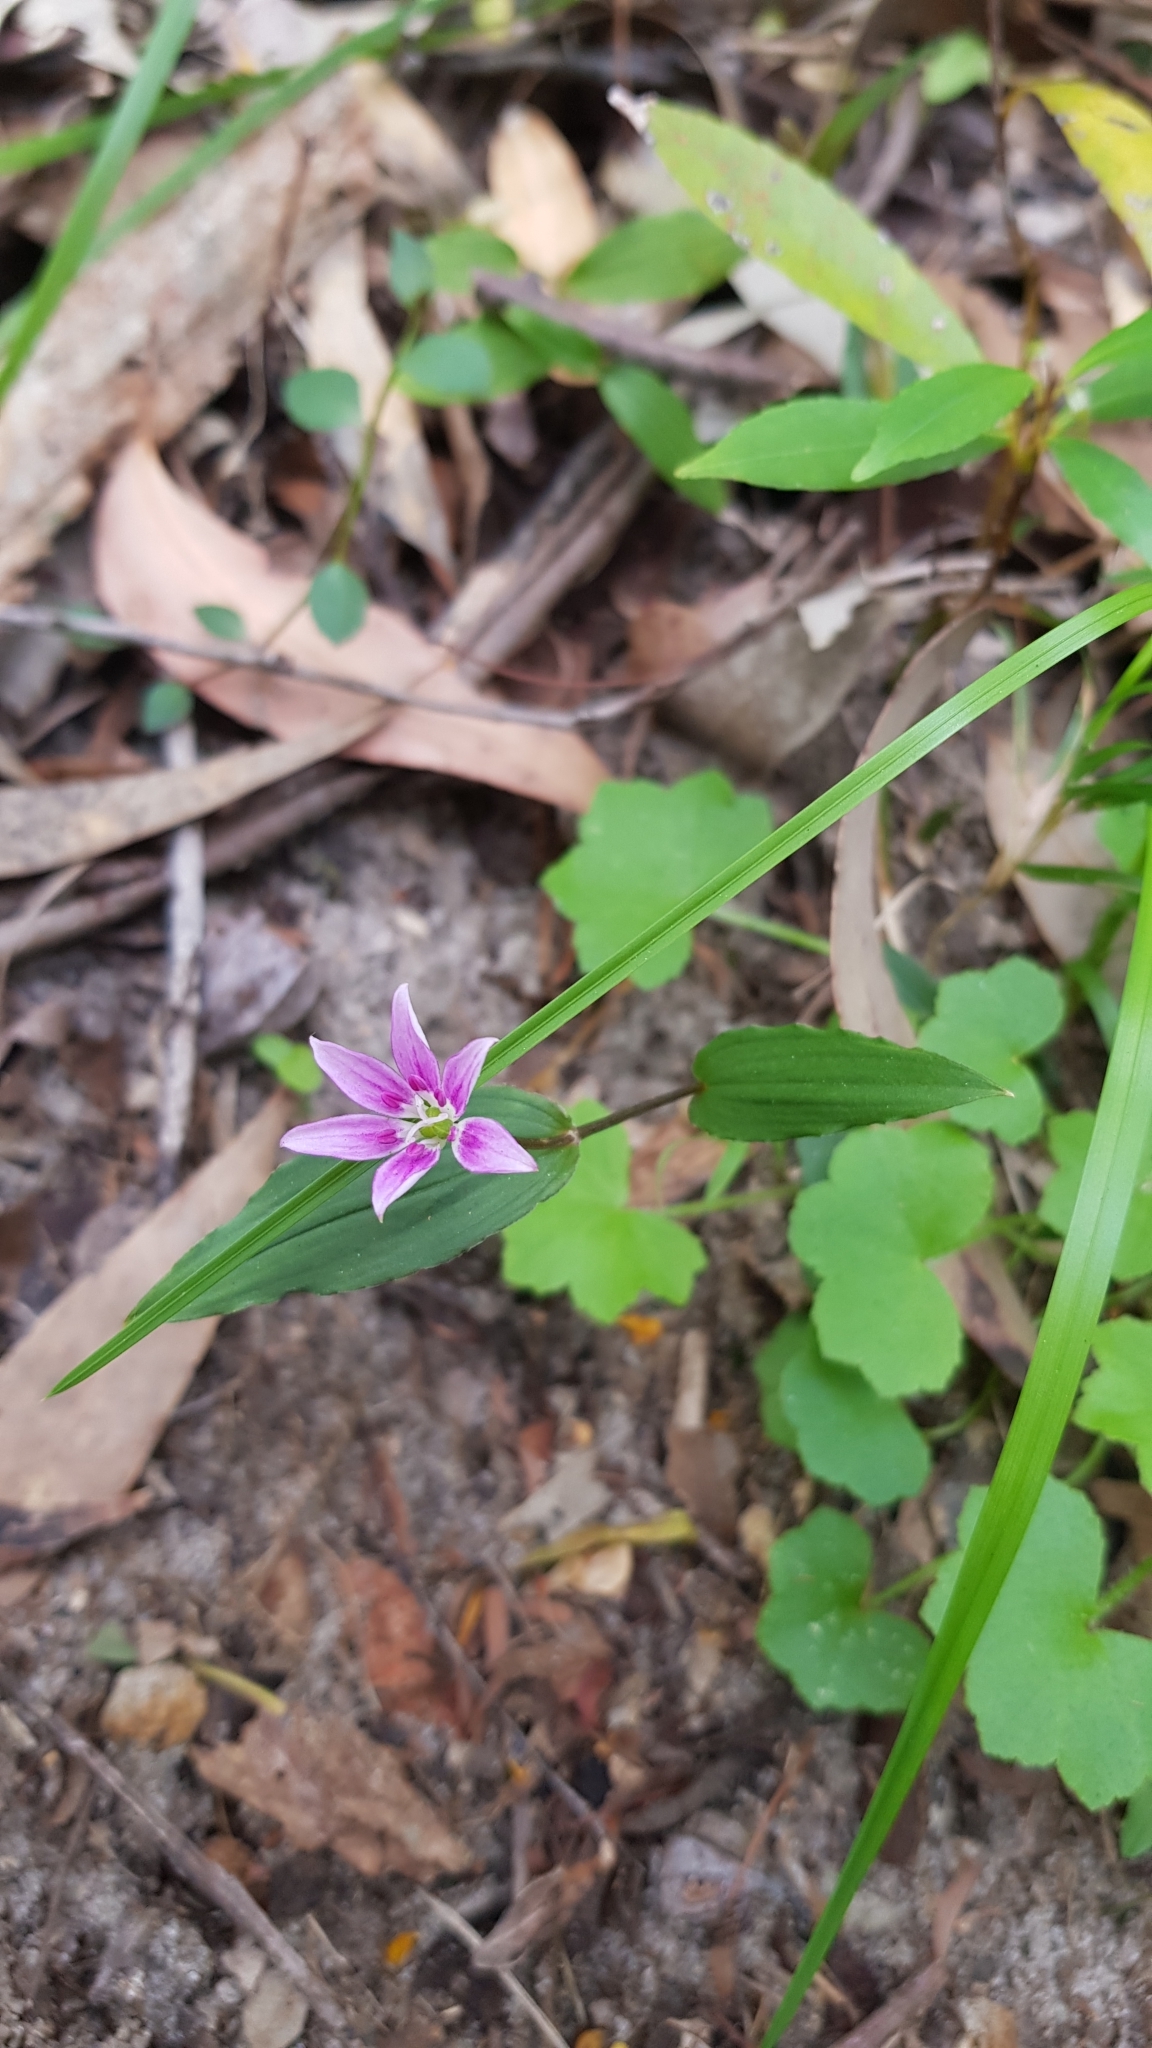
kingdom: Plantae
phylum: Tracheophyta
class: Liliopsida
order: Liliales
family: Colchicaceae
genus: Schelhammera
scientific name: Schelhammera undulata
